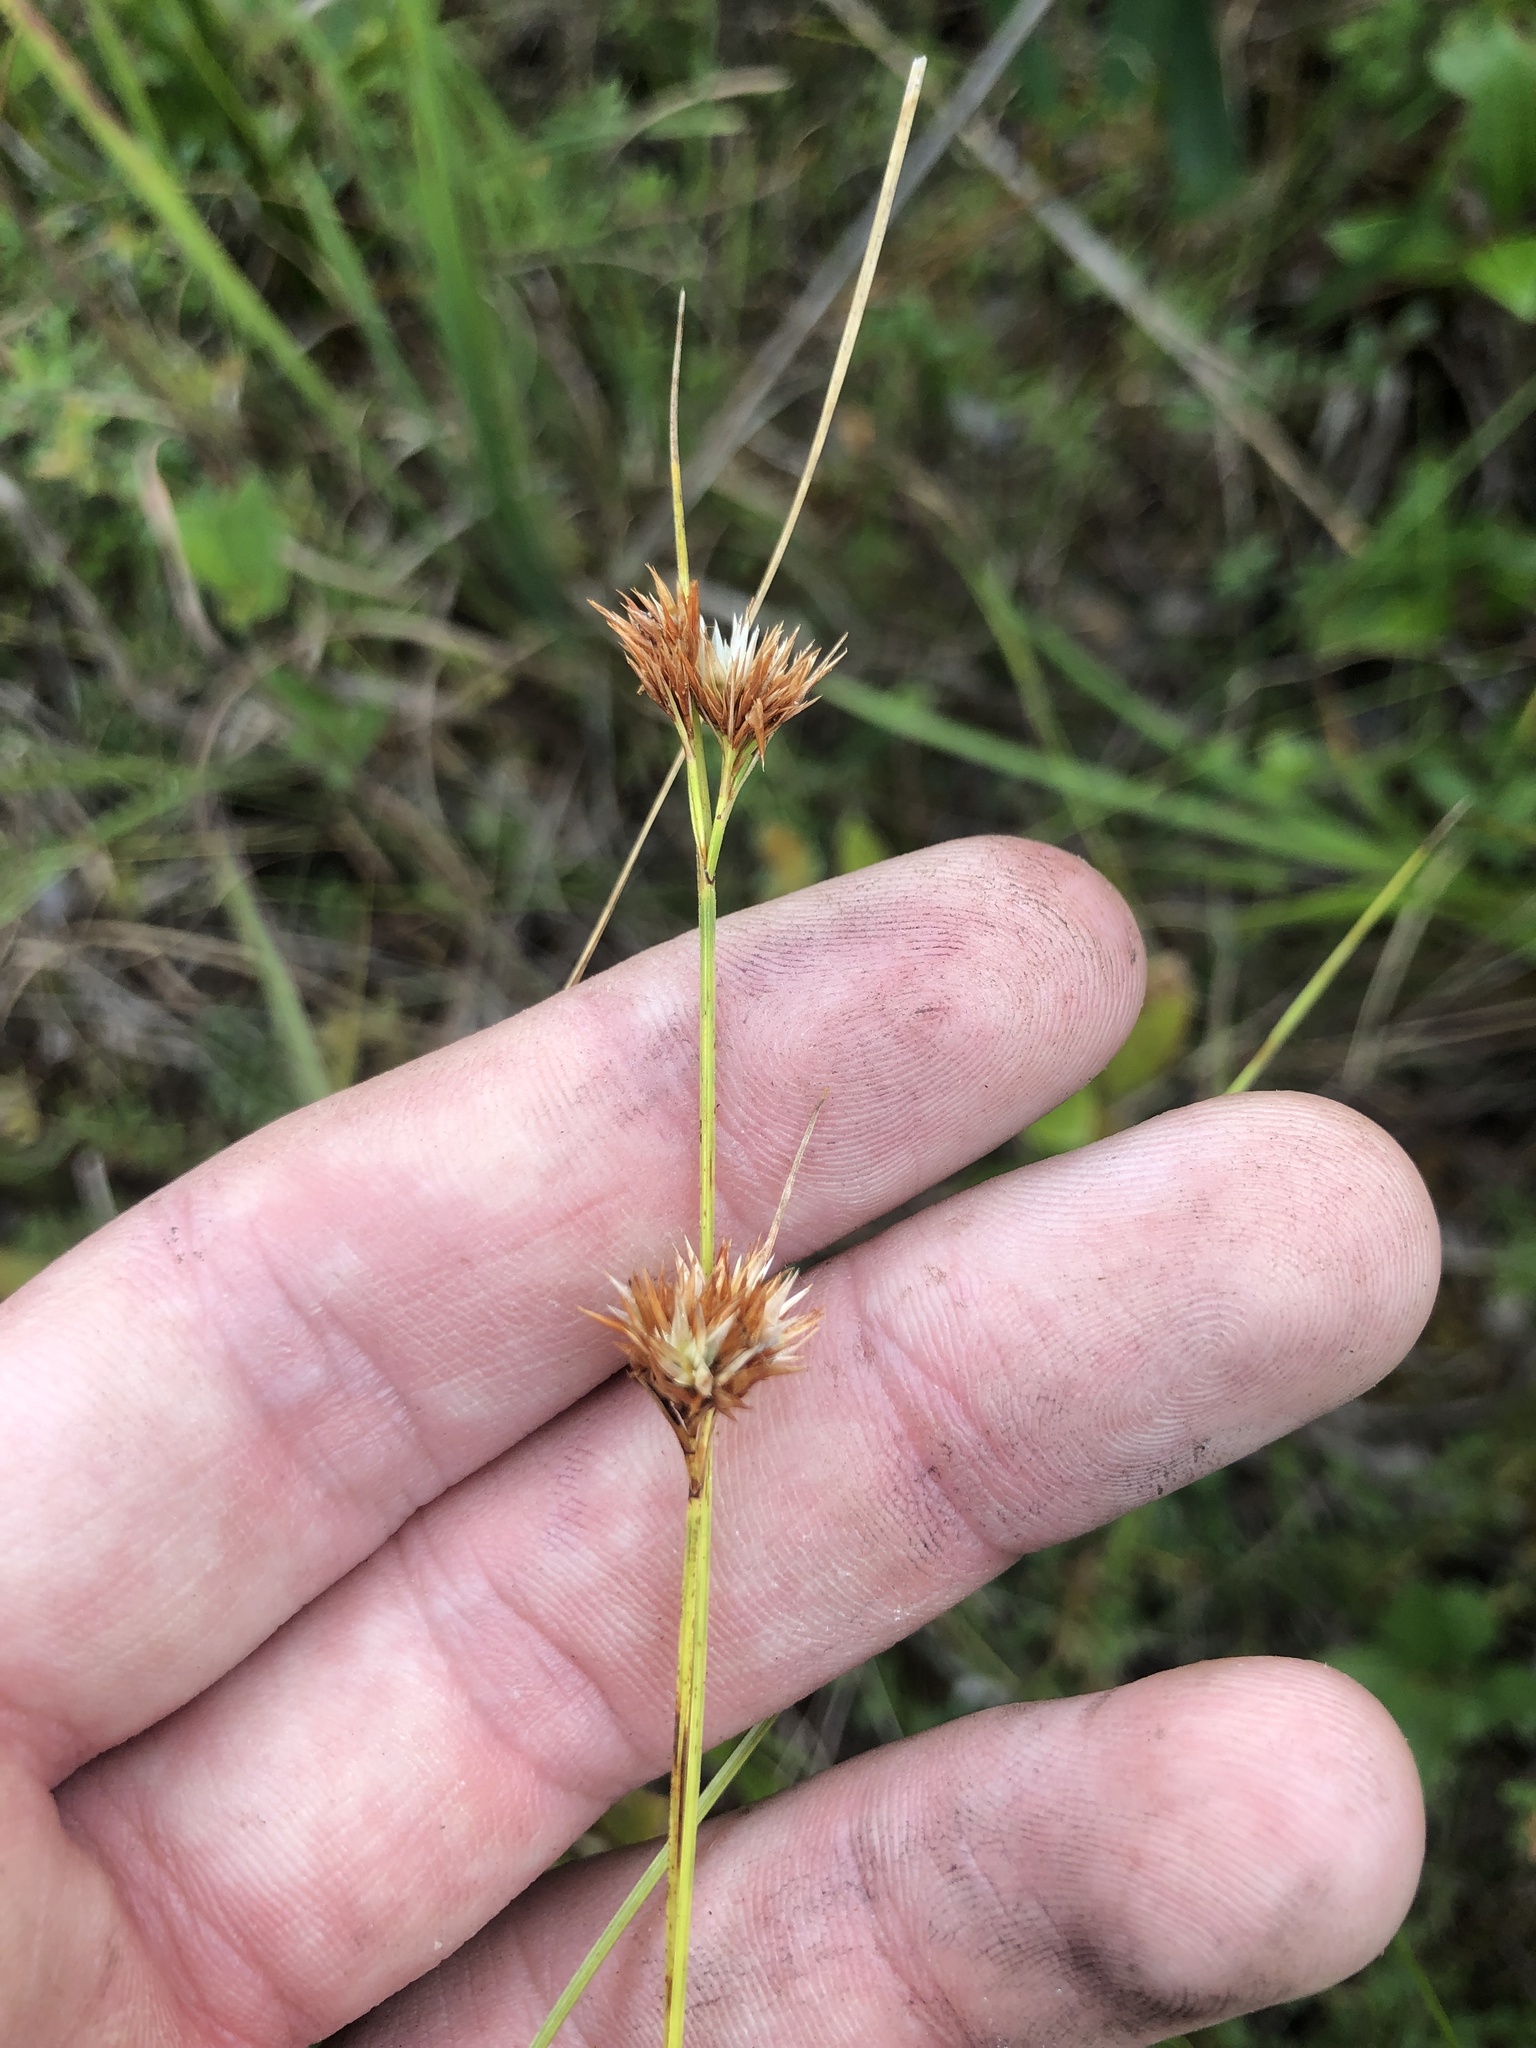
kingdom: Plantae
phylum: Tracheophyta
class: Liliopsida
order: Poales
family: Cyperaceae
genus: Rhynchospora
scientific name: Rhynchospora pallida
